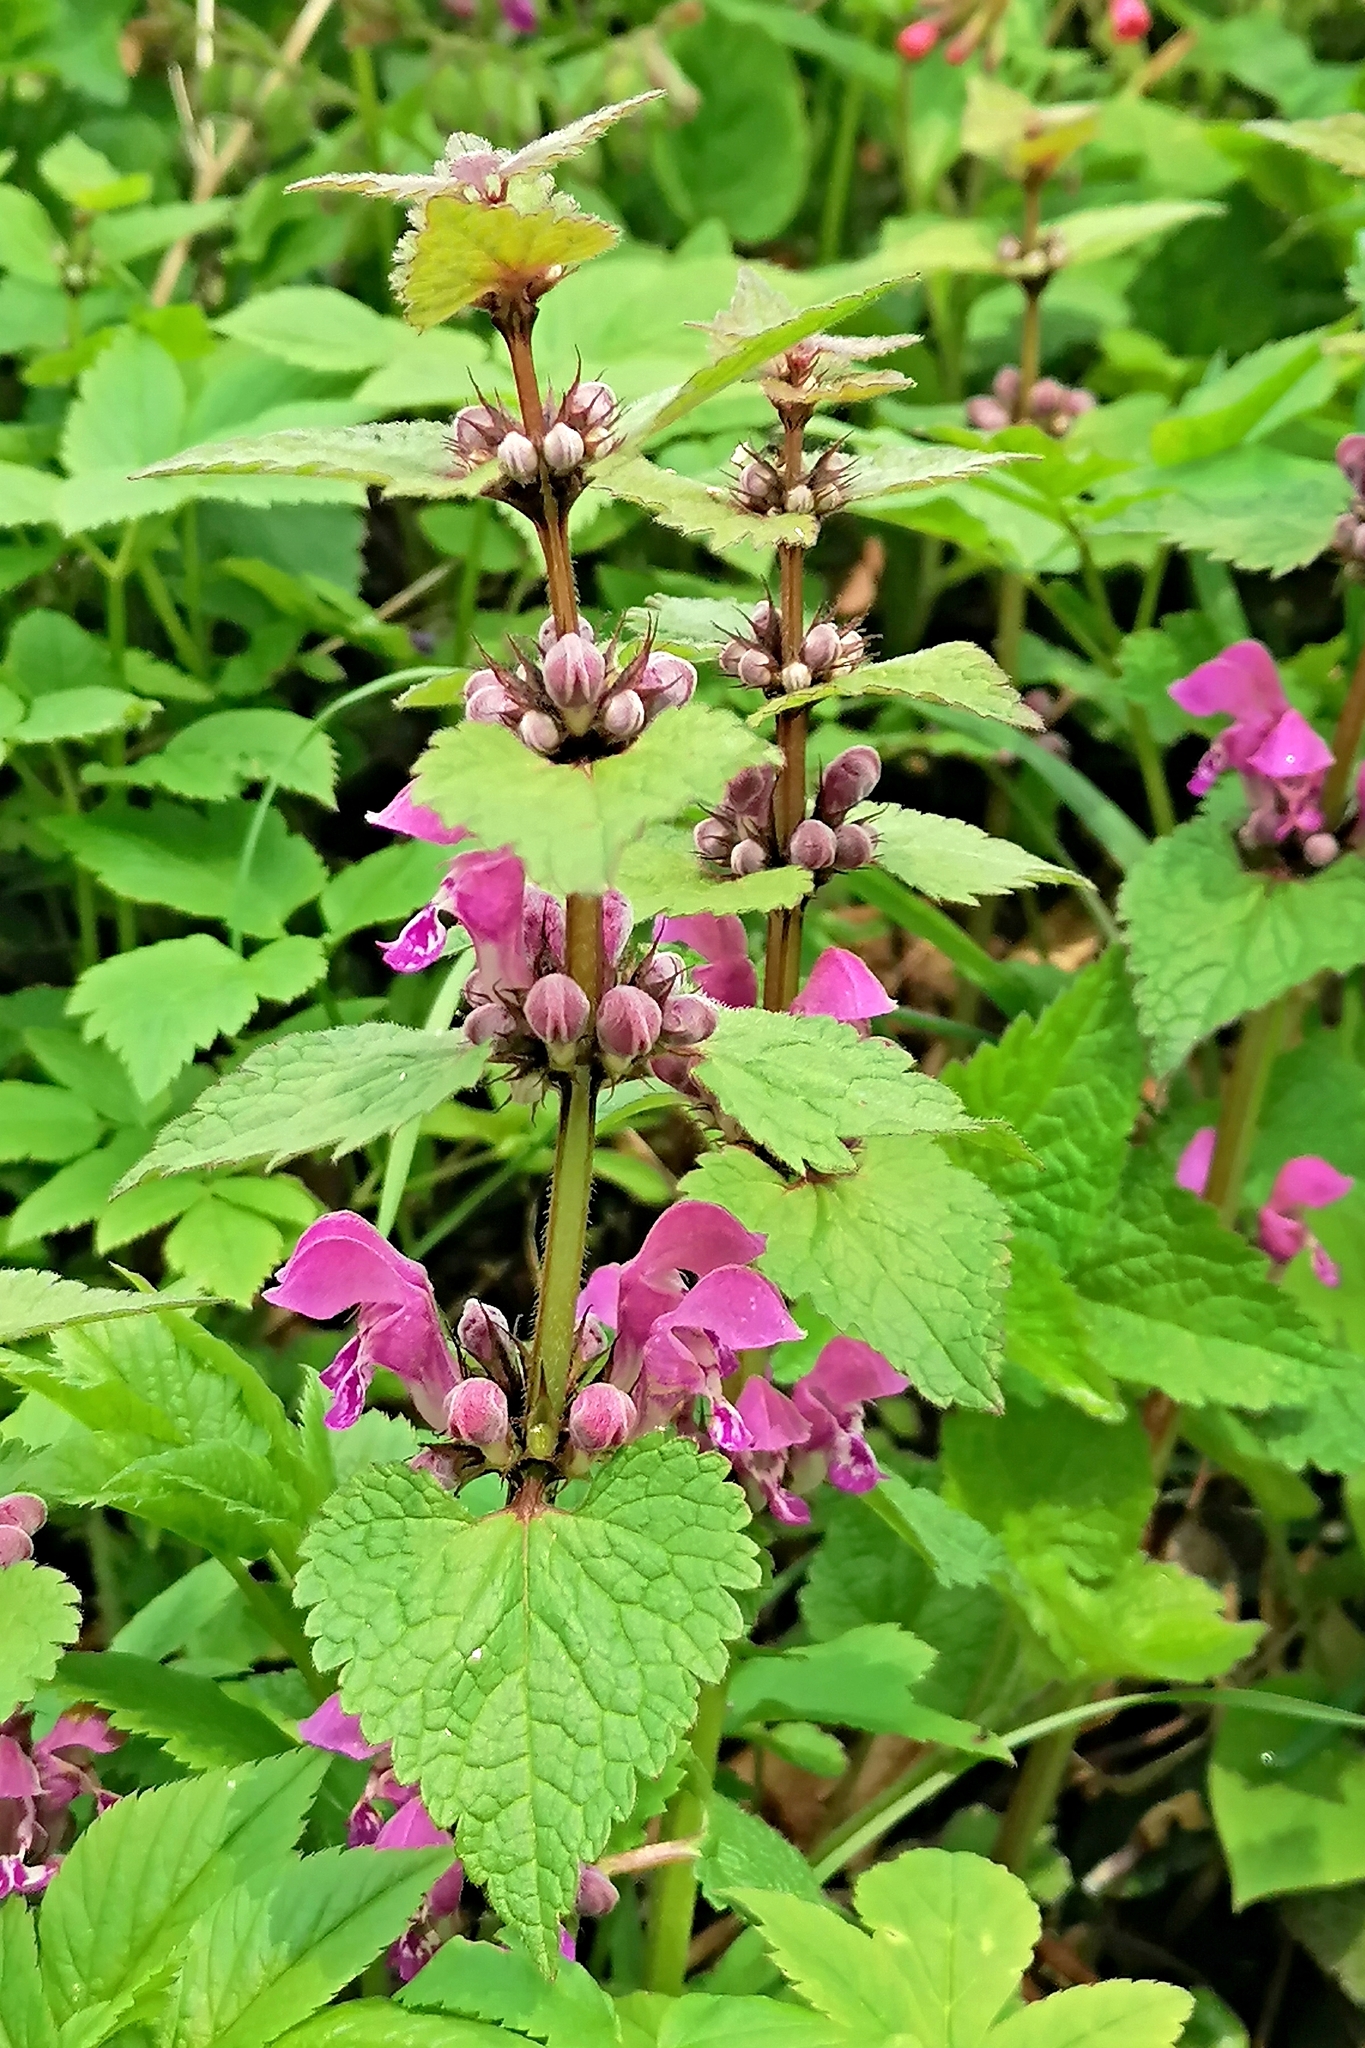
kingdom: Plantae
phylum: Tracheophyta
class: Magnoliopsida
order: Lamiales
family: Lamiaceae
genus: Lamium
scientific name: Lamium maculatum
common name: Spotted dead-nettle
